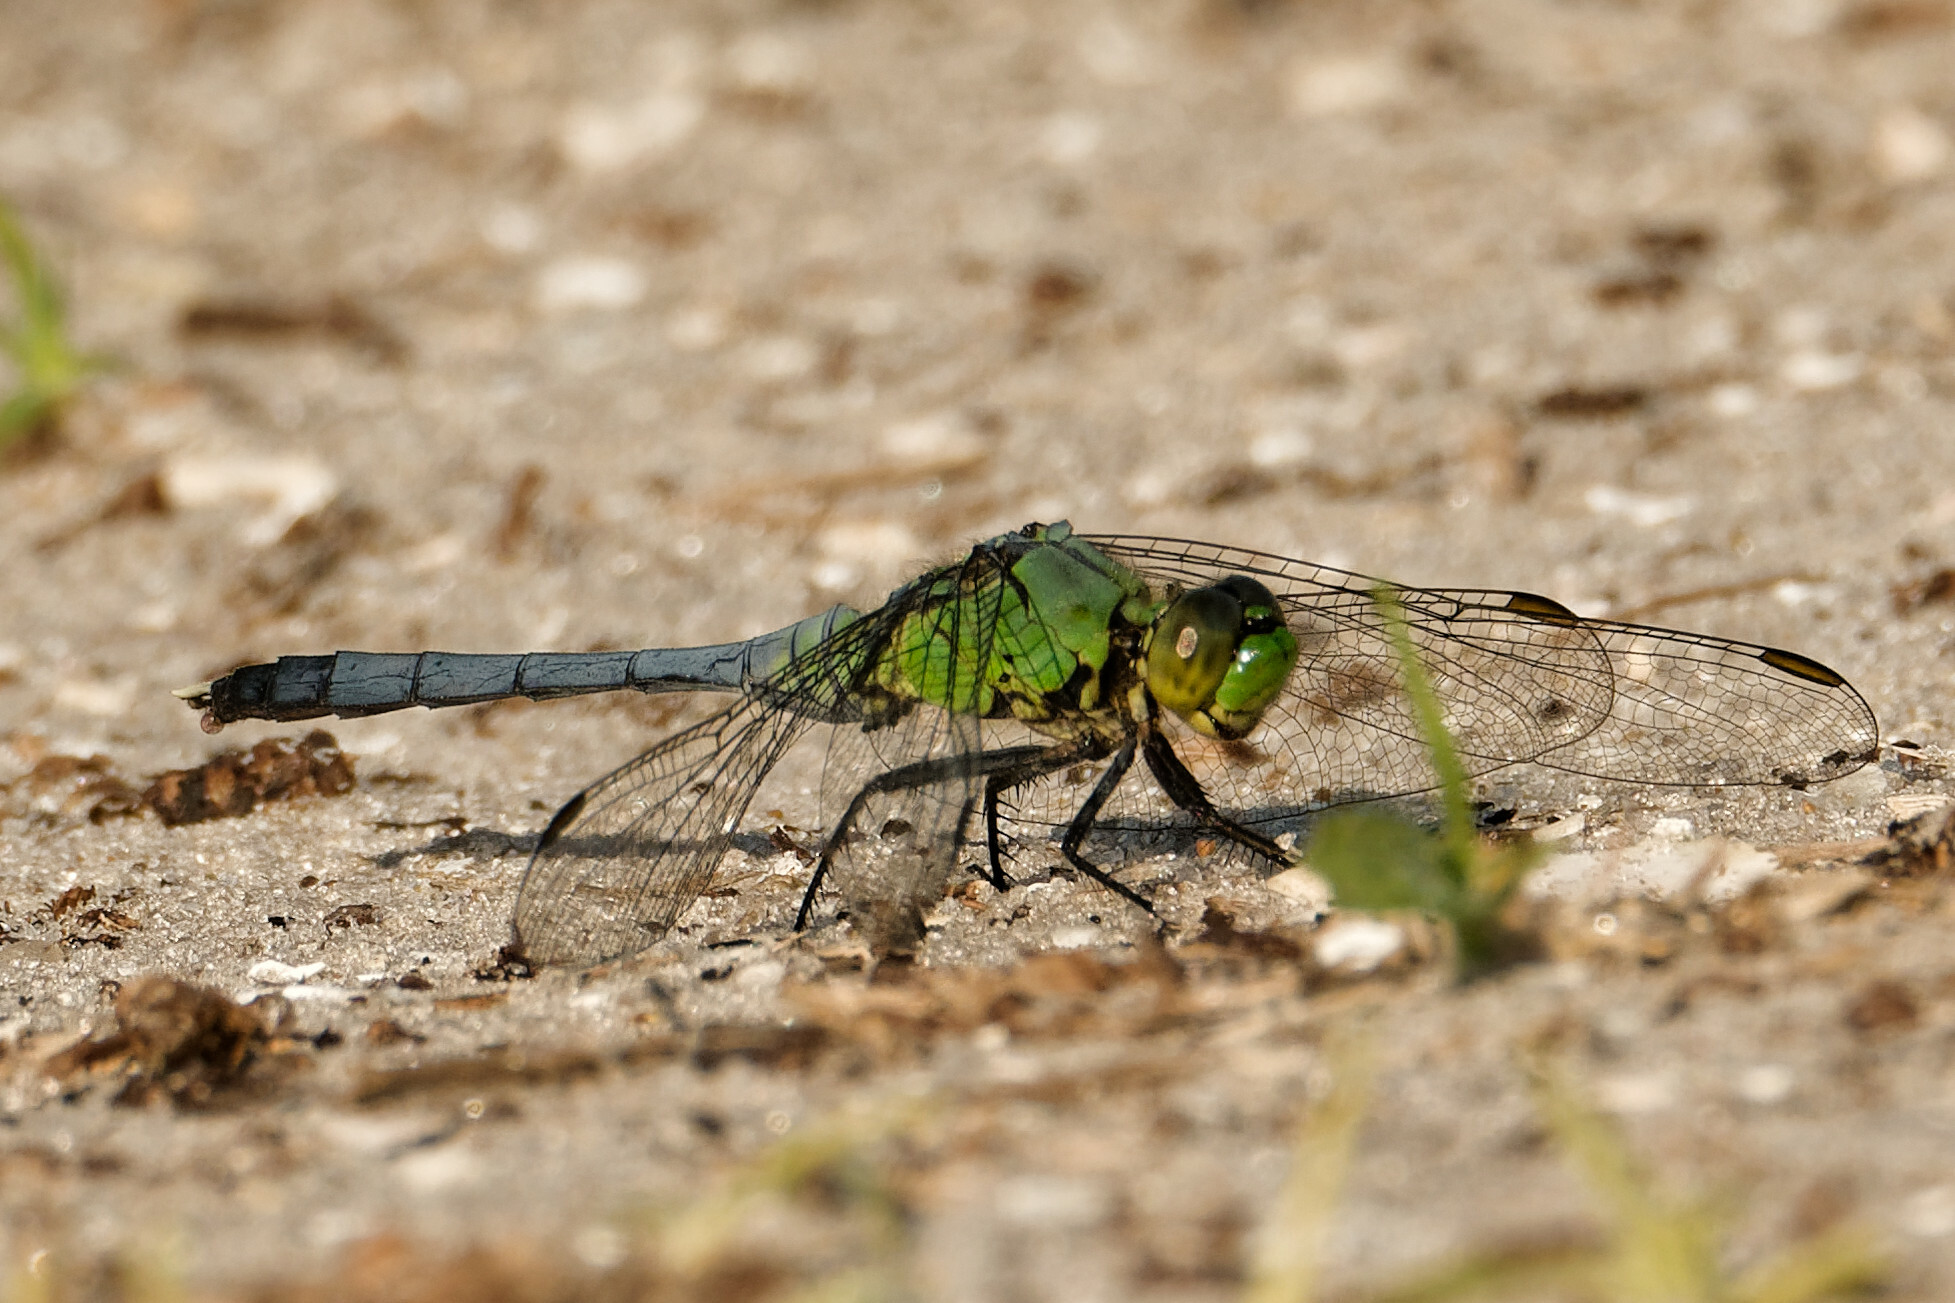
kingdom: Animalia
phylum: Arthropoda
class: Insecta
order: Odonata
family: Libellulidae
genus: Erythemis
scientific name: Erythemis simplicicollis
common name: Eastern pondhawk
